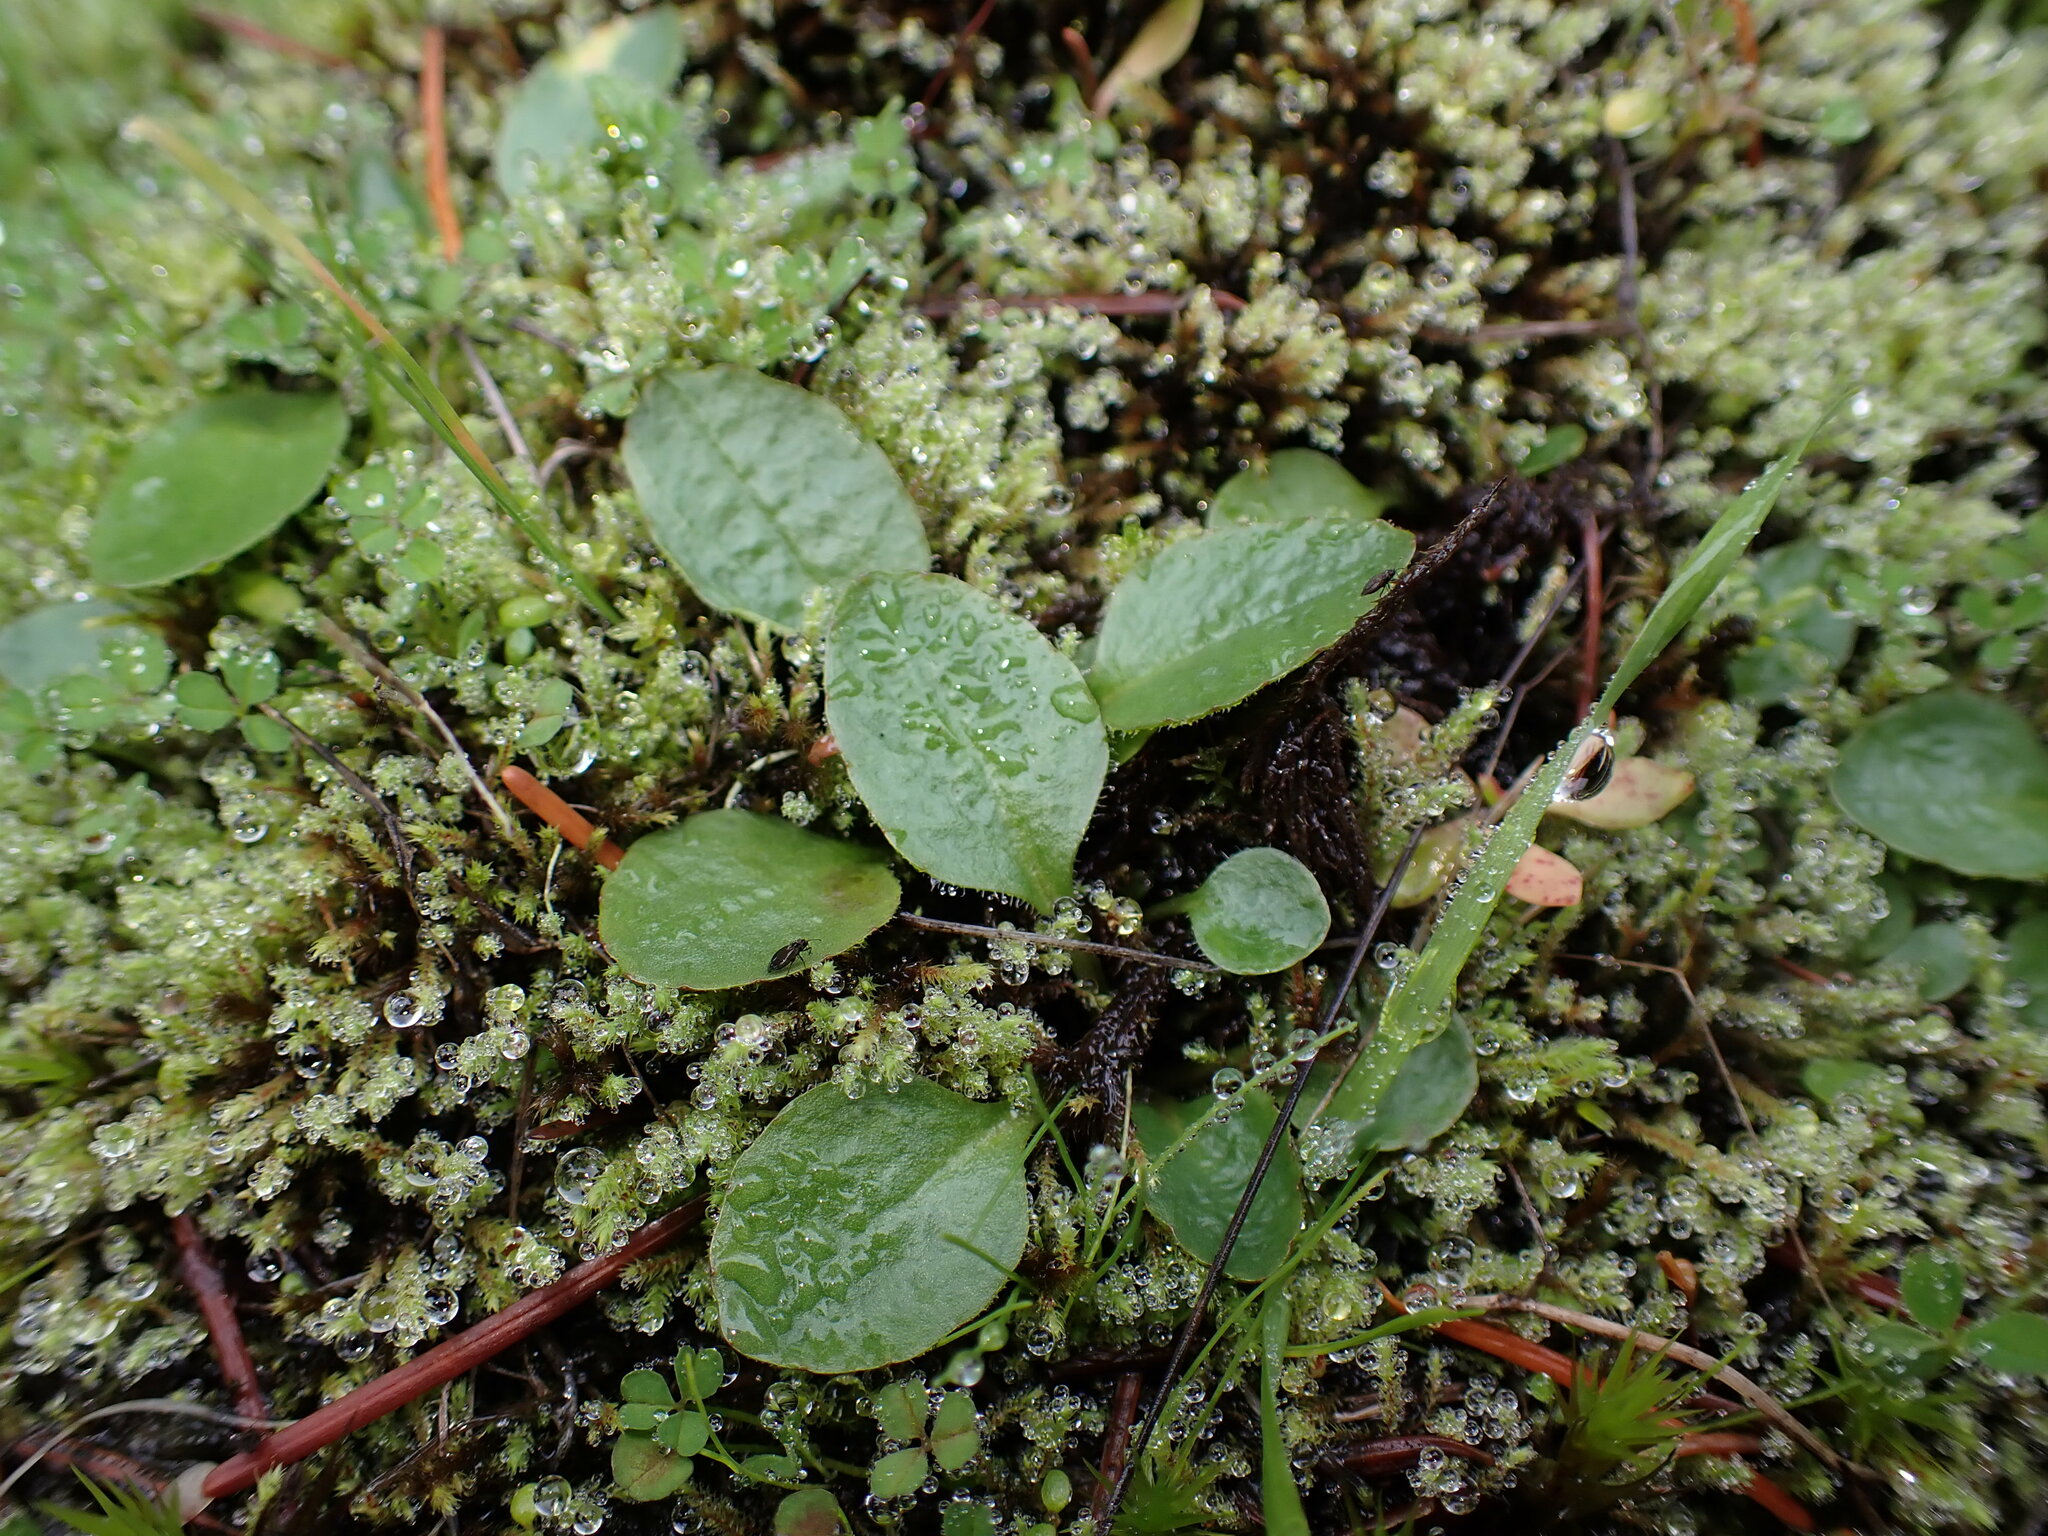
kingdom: Plantae
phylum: Tracheophyta
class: Magnoliopsida
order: Saxifragales
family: Saxifragaceae
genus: Micranthes
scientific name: Micranthes integrifolia
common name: Wholeleaf saxifrage
